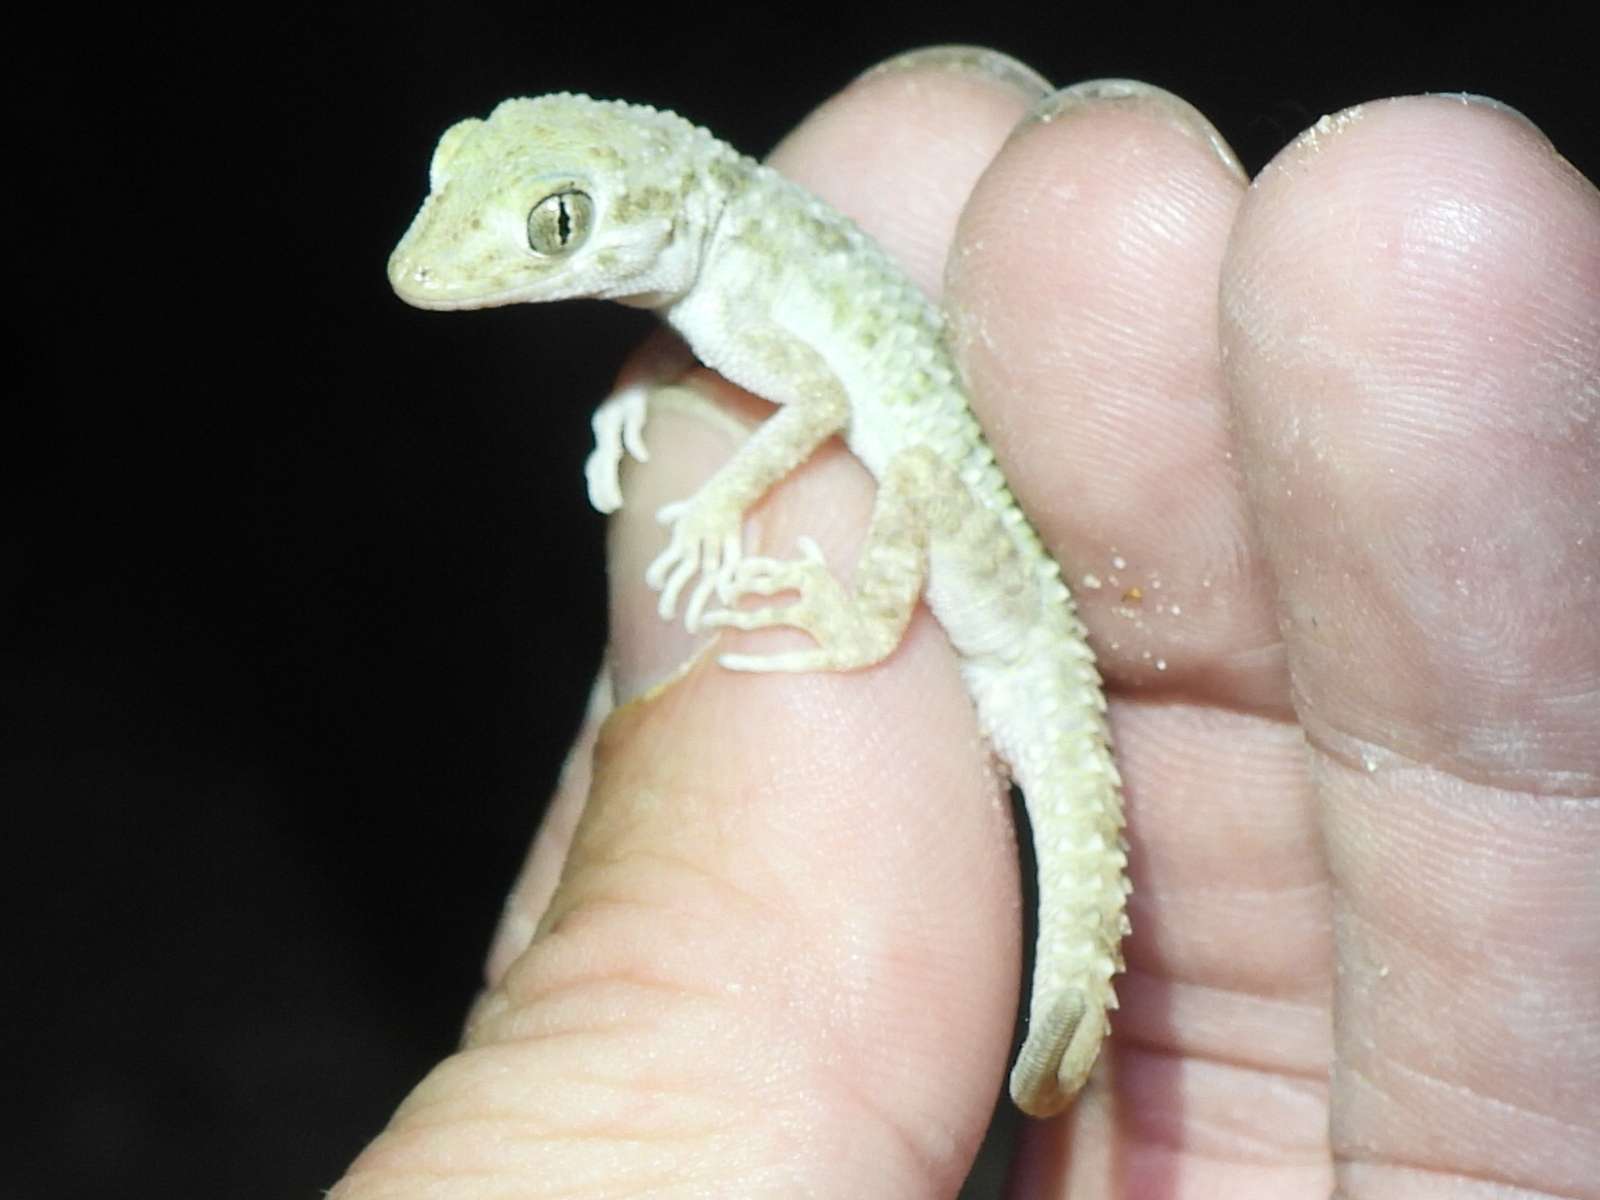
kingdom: Animalia
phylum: Chordata
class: Squamata
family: Gekkonidae
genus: Cyrtopodion
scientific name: Cyrtopodion scabrum
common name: Rough-tailed gecko
